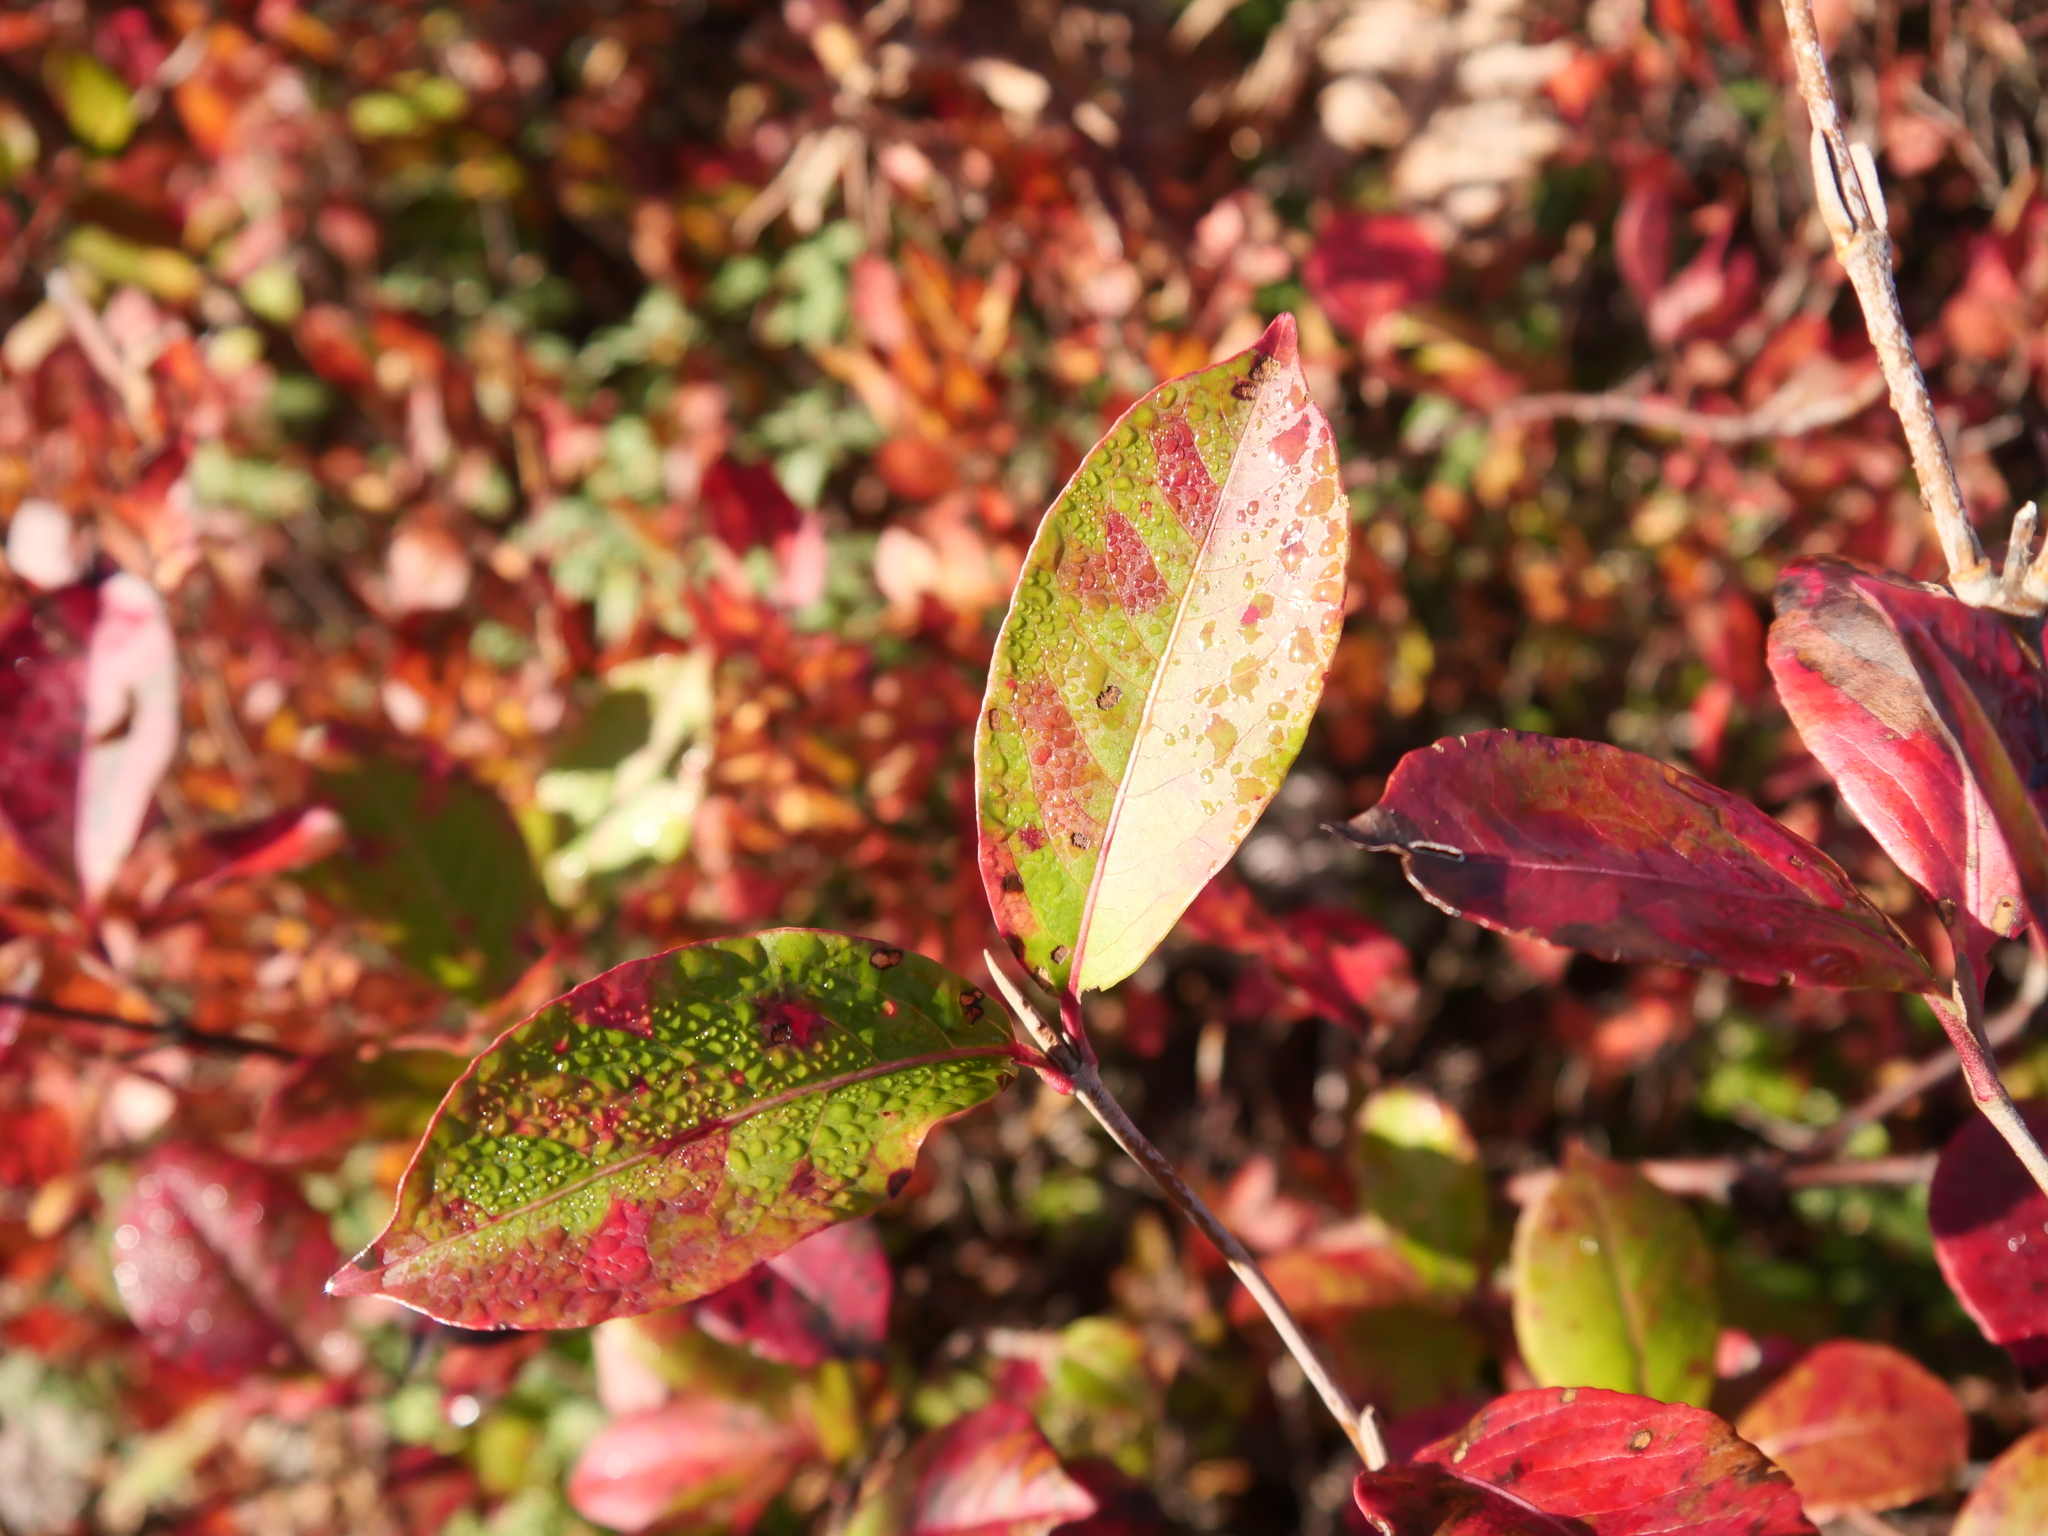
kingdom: Plantae
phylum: Tracheophyta
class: Magnoliopsida
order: Dipsacales
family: Viburnaceae
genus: Viburnum
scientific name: Viburnum cassinoides
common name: Swamp haw
